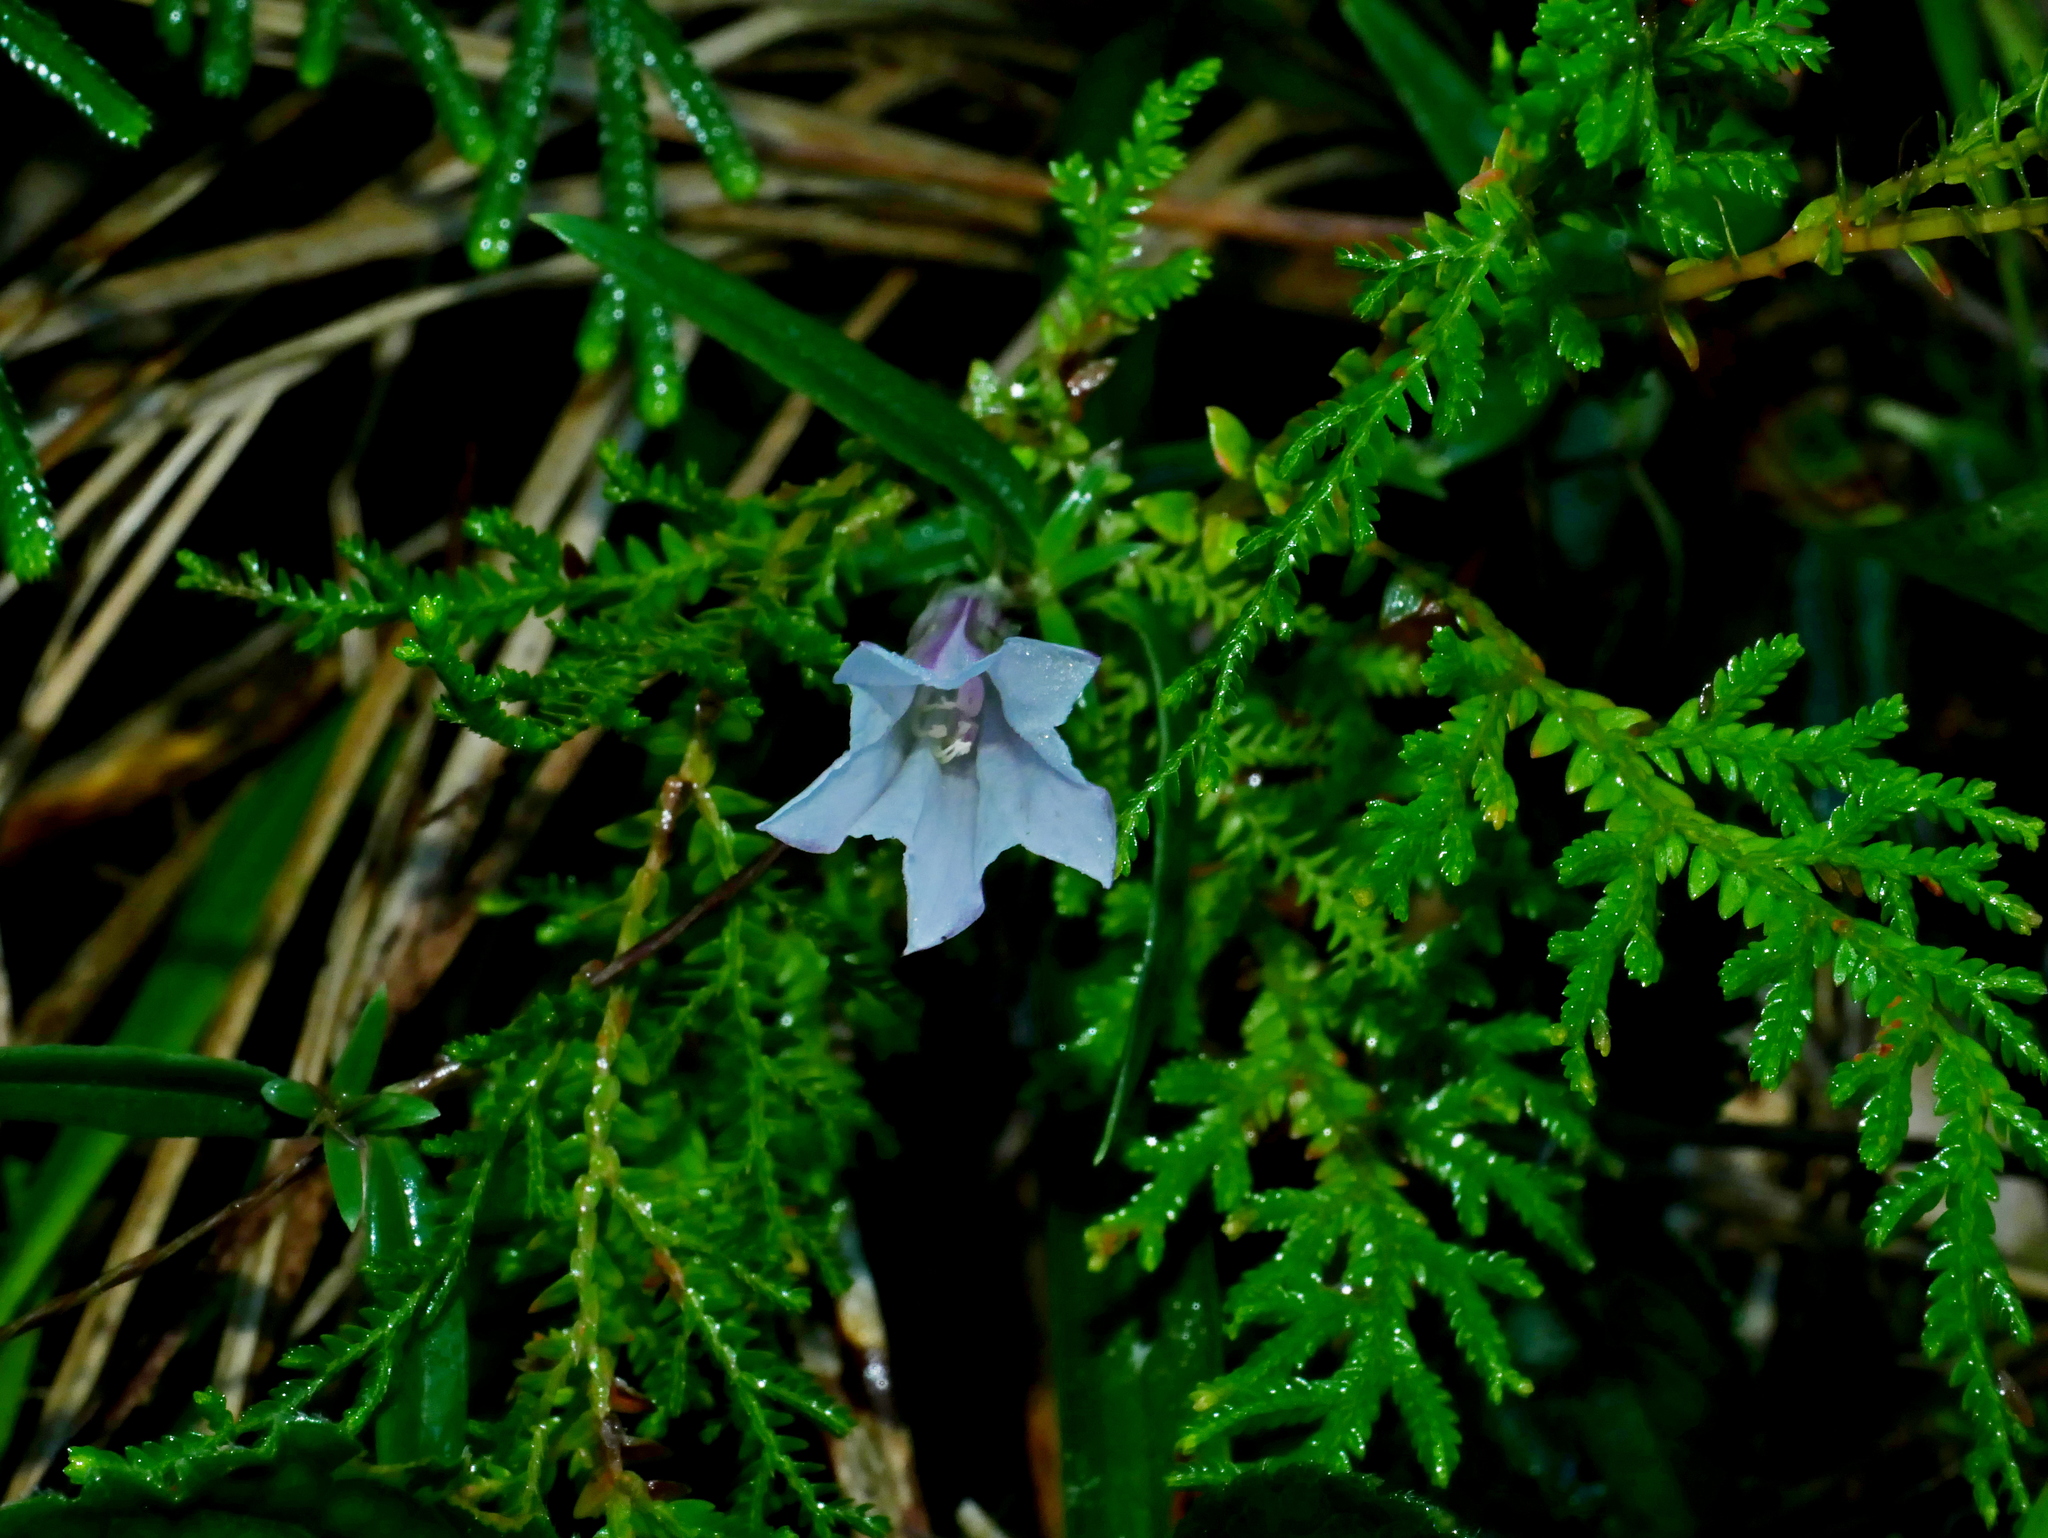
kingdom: Plantae
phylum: Tracheophyta
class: Magnoliopsida
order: Gentianales
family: Gentianaceae
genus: Tripterospermum
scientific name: Tripterospermum hualienense
